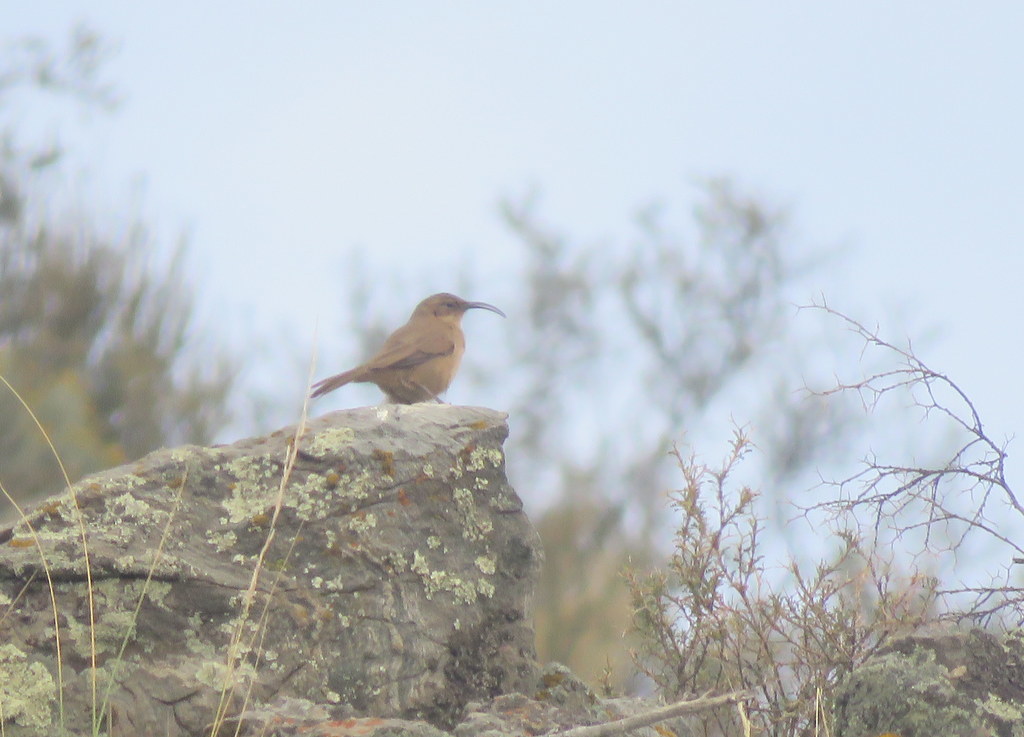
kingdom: Animalia
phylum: Chordata
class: Aves
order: Passeriformes
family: Furnariidae
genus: Upucerthia
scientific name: Upucerthia validirostris
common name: Buff-breasted earthcreeper
